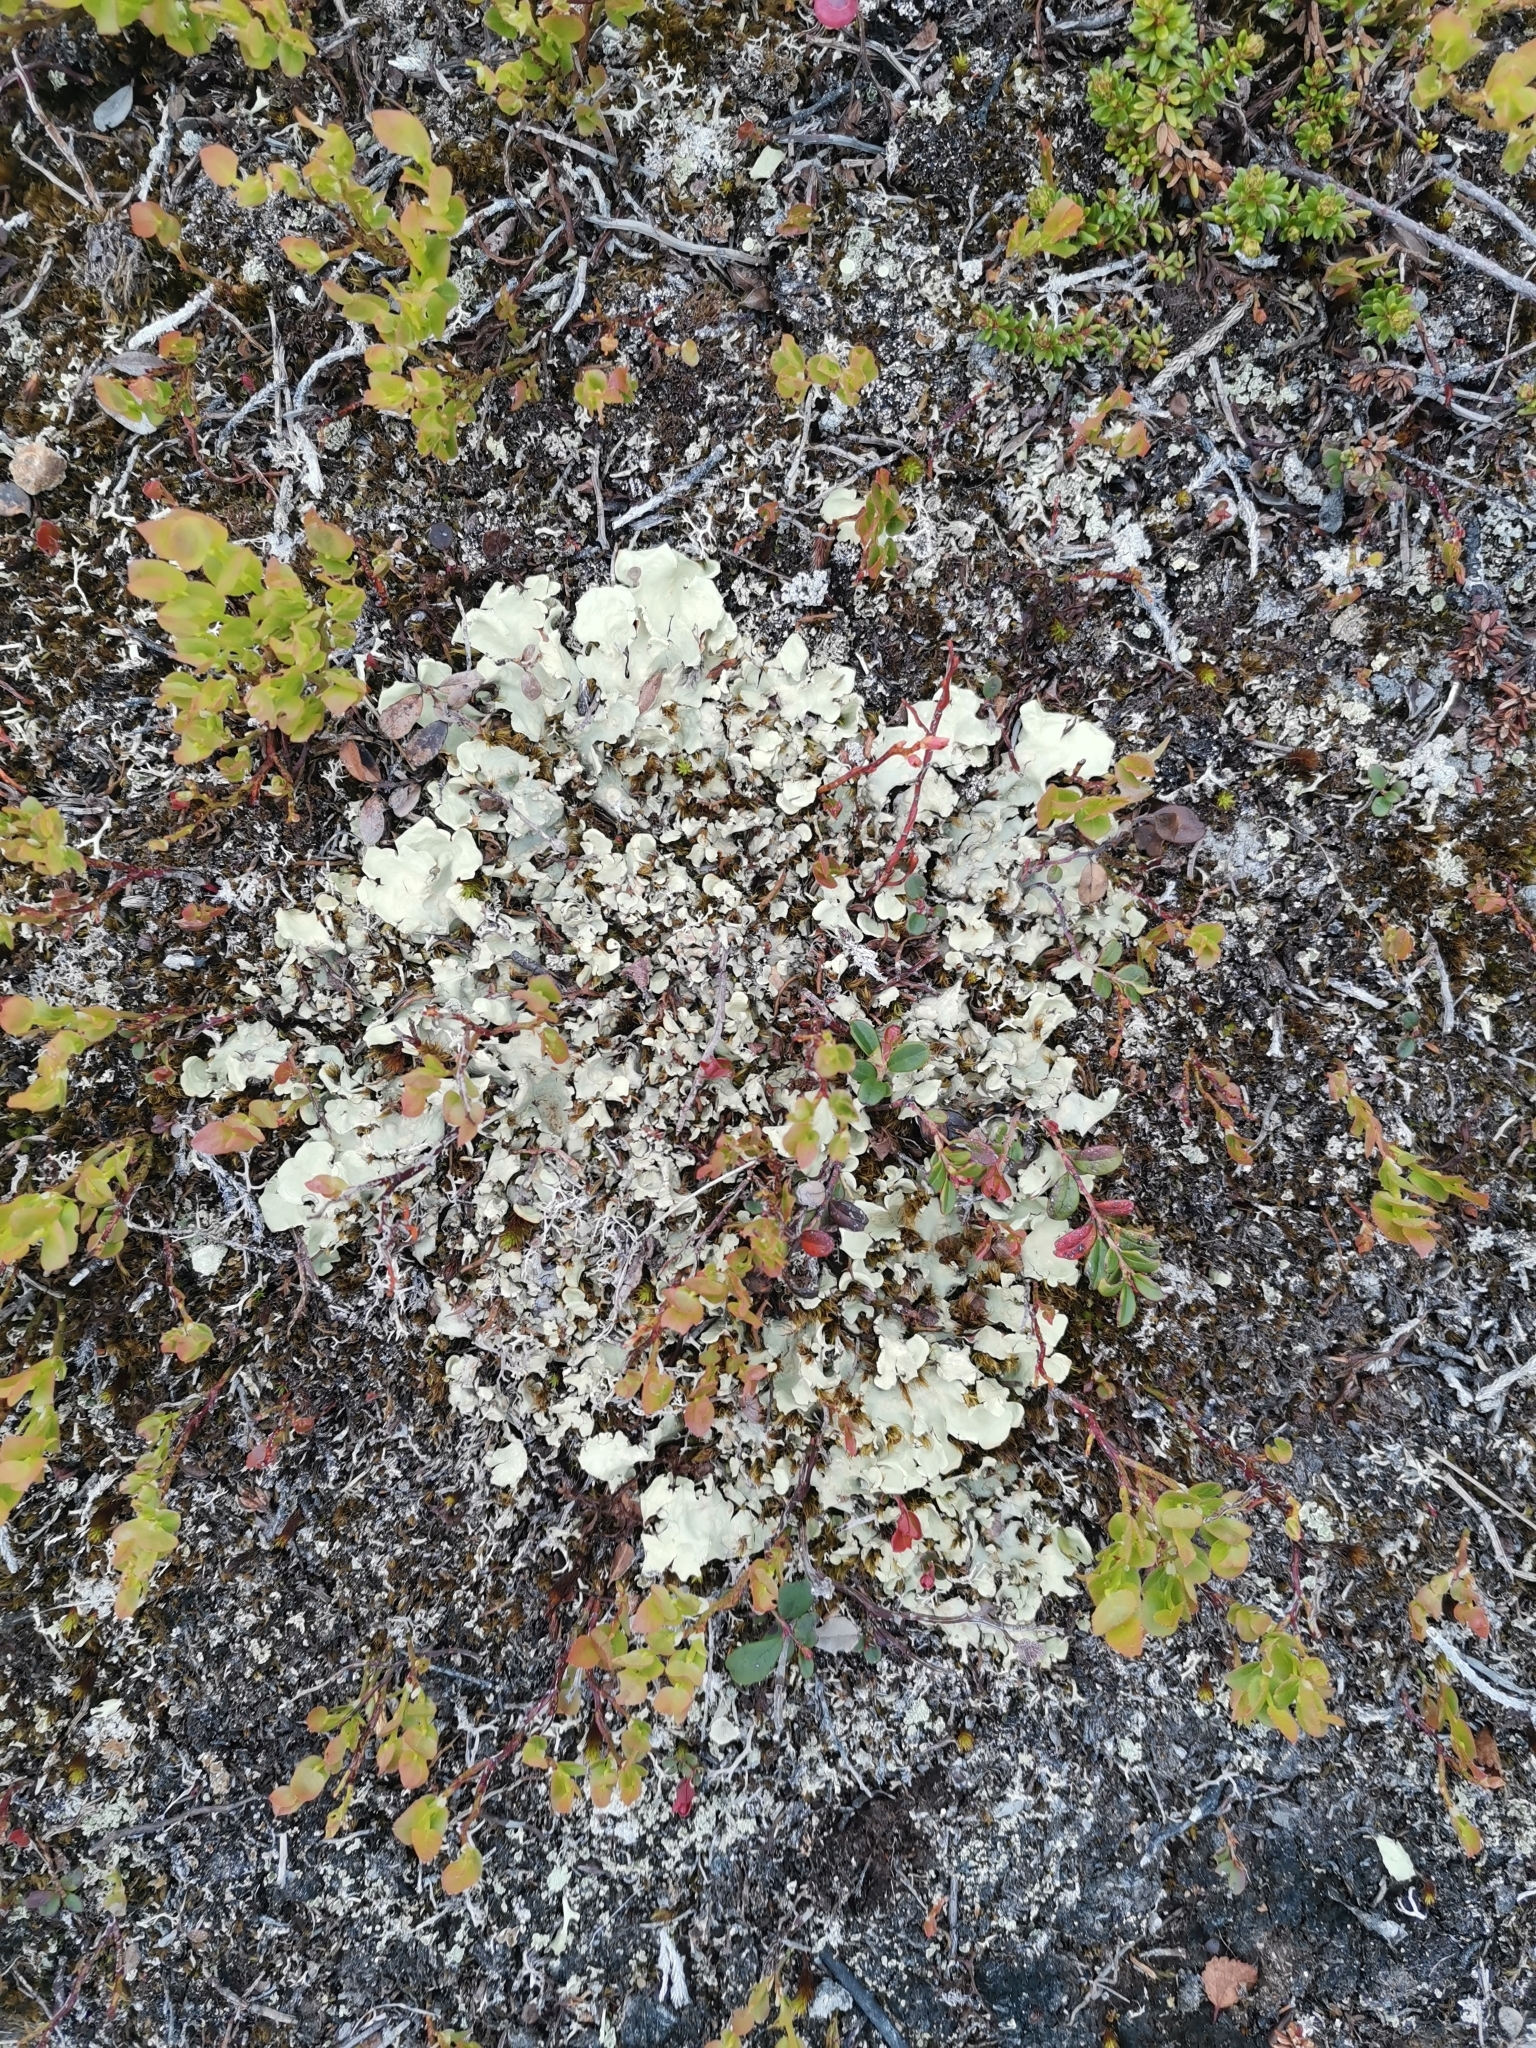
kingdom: Fungi
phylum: Ascomycota
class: Lecanoromycetes
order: Peltigerales
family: Nephromataceae
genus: Nephroma
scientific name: Nephroma arcticum
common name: Arctic kidney-lichen
